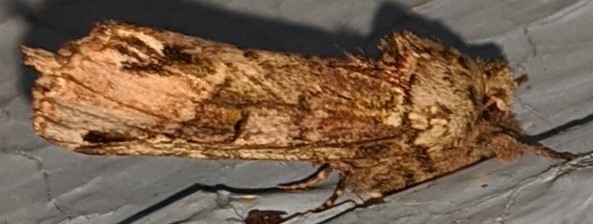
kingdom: Animalia
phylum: Arthropoda
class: Insecta
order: Lepidoptera
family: Notodontidae
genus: Schizura
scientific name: Schizura
